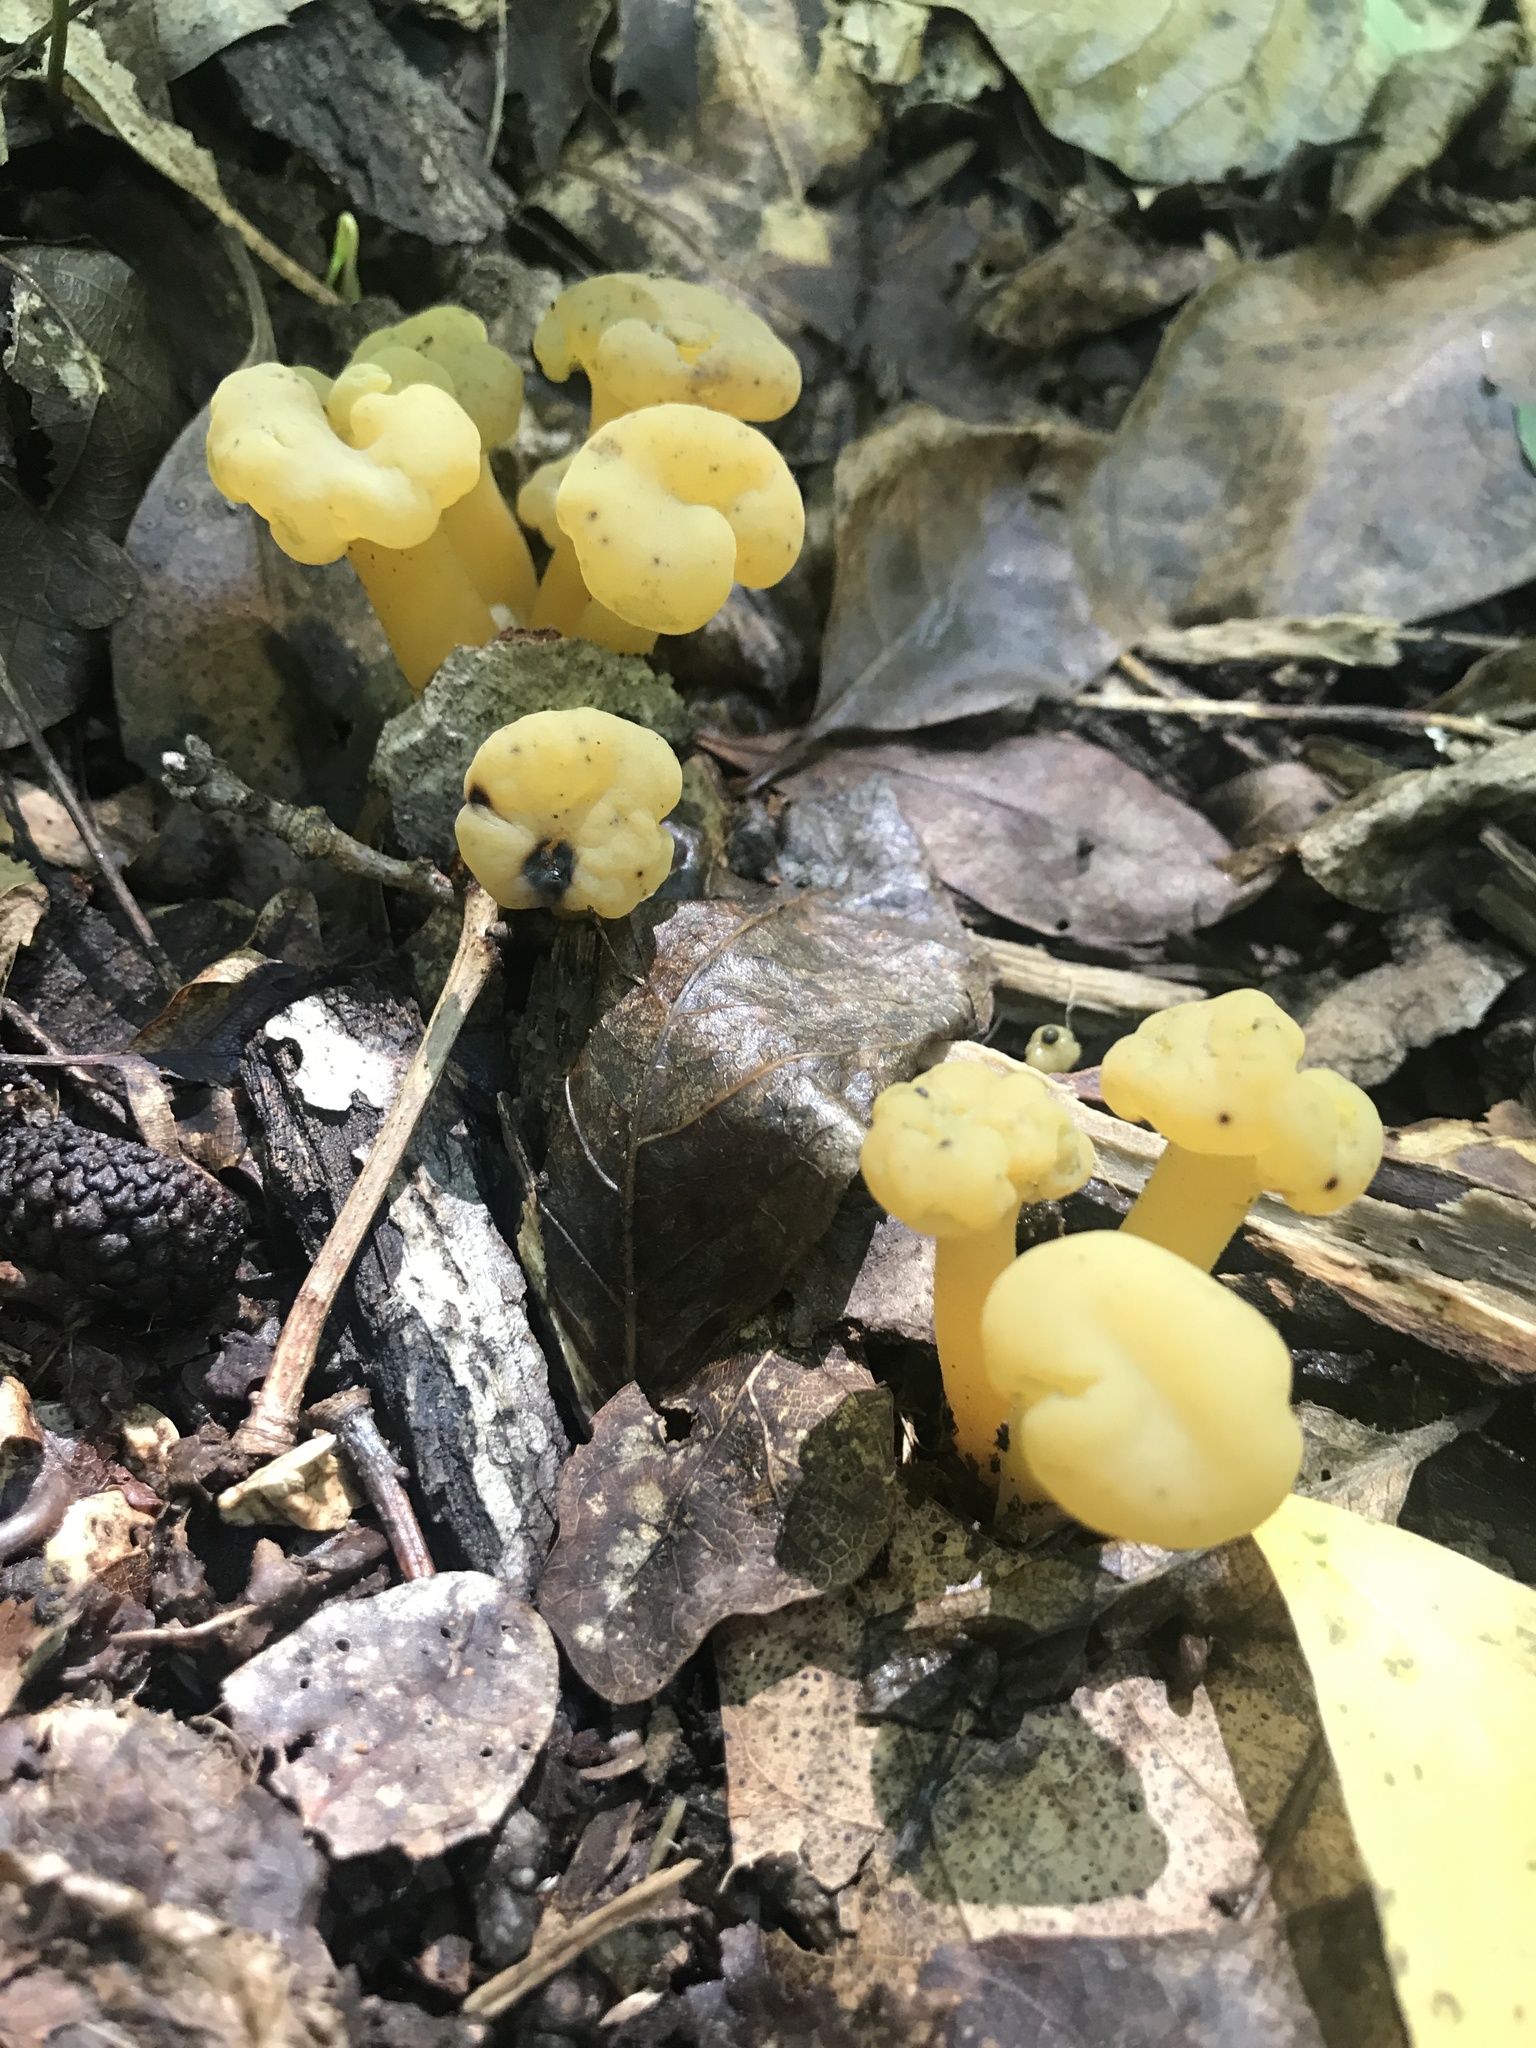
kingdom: Fungi
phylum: Ascomycota
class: Leotiomycetes
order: Leotiales
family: Leotiaceae
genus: Leotia
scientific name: Leotia lubrica
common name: Jellybaby
